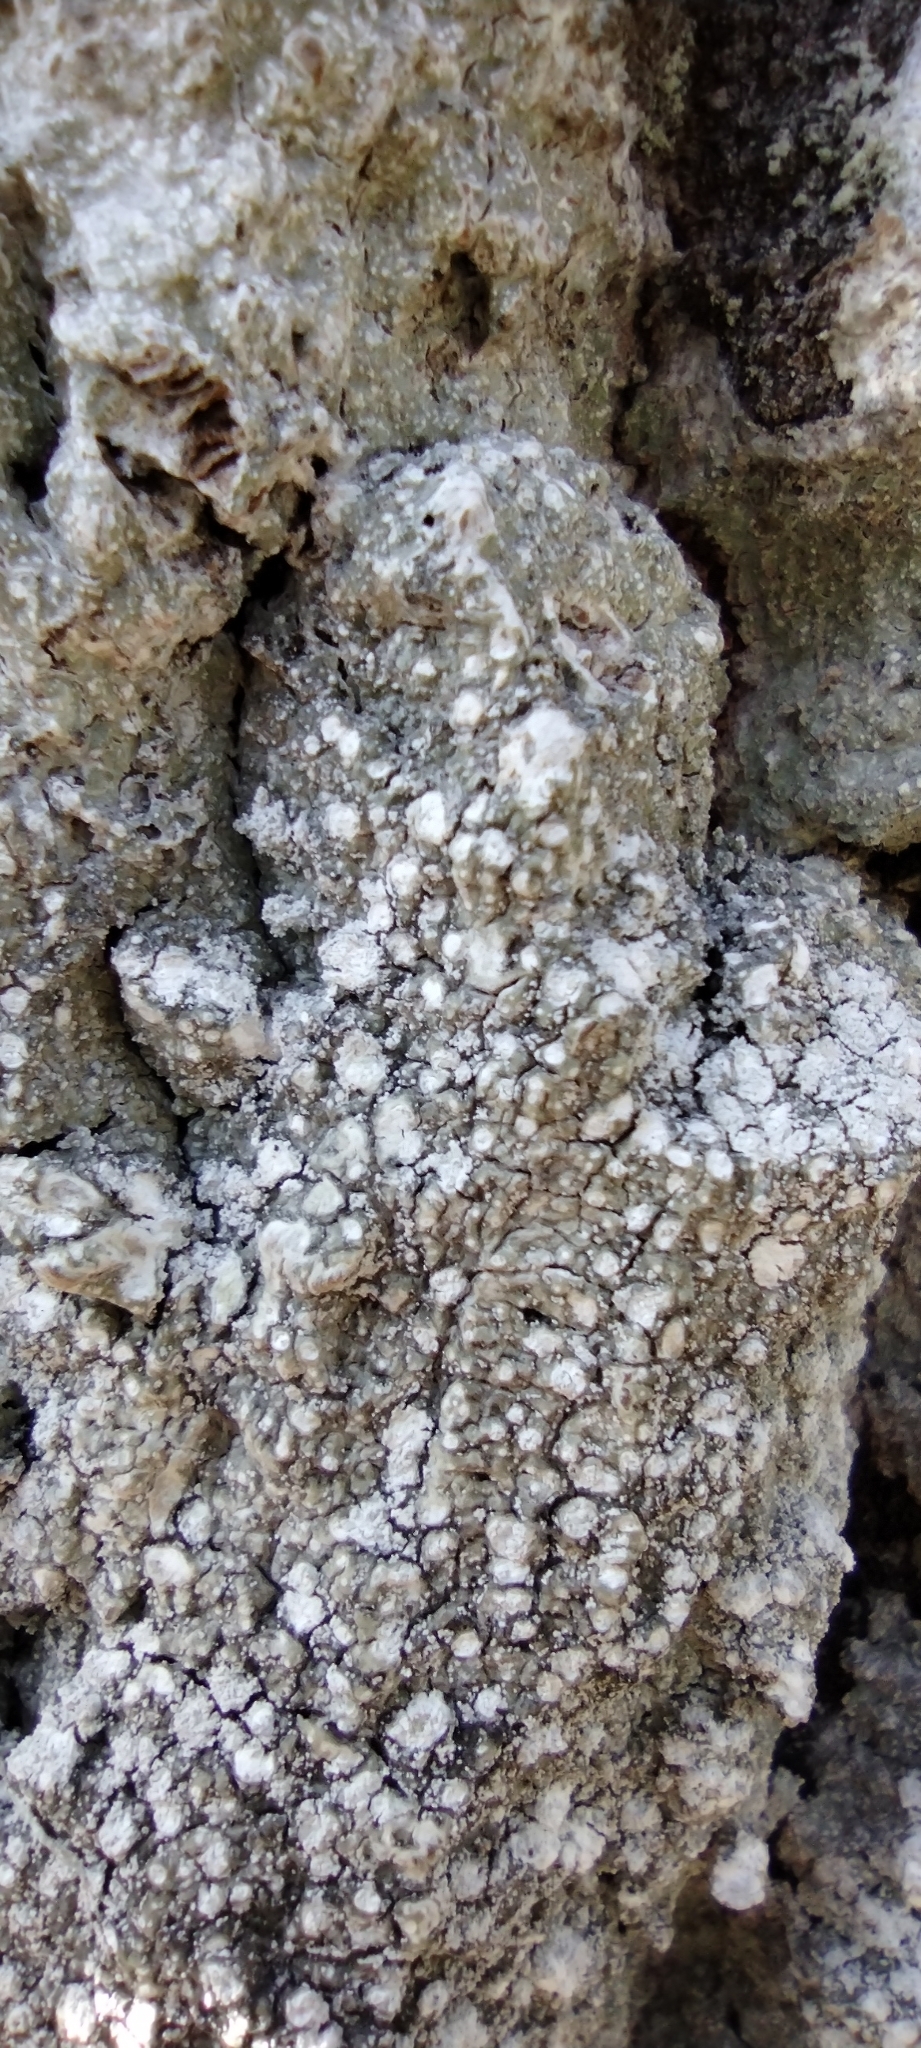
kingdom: Fungi
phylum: Ascomycota
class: Lecanoromycetes
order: Pertusariales
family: Pertusariaceae
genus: Lepra
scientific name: Lepra amara
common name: Bitter wart lichen
